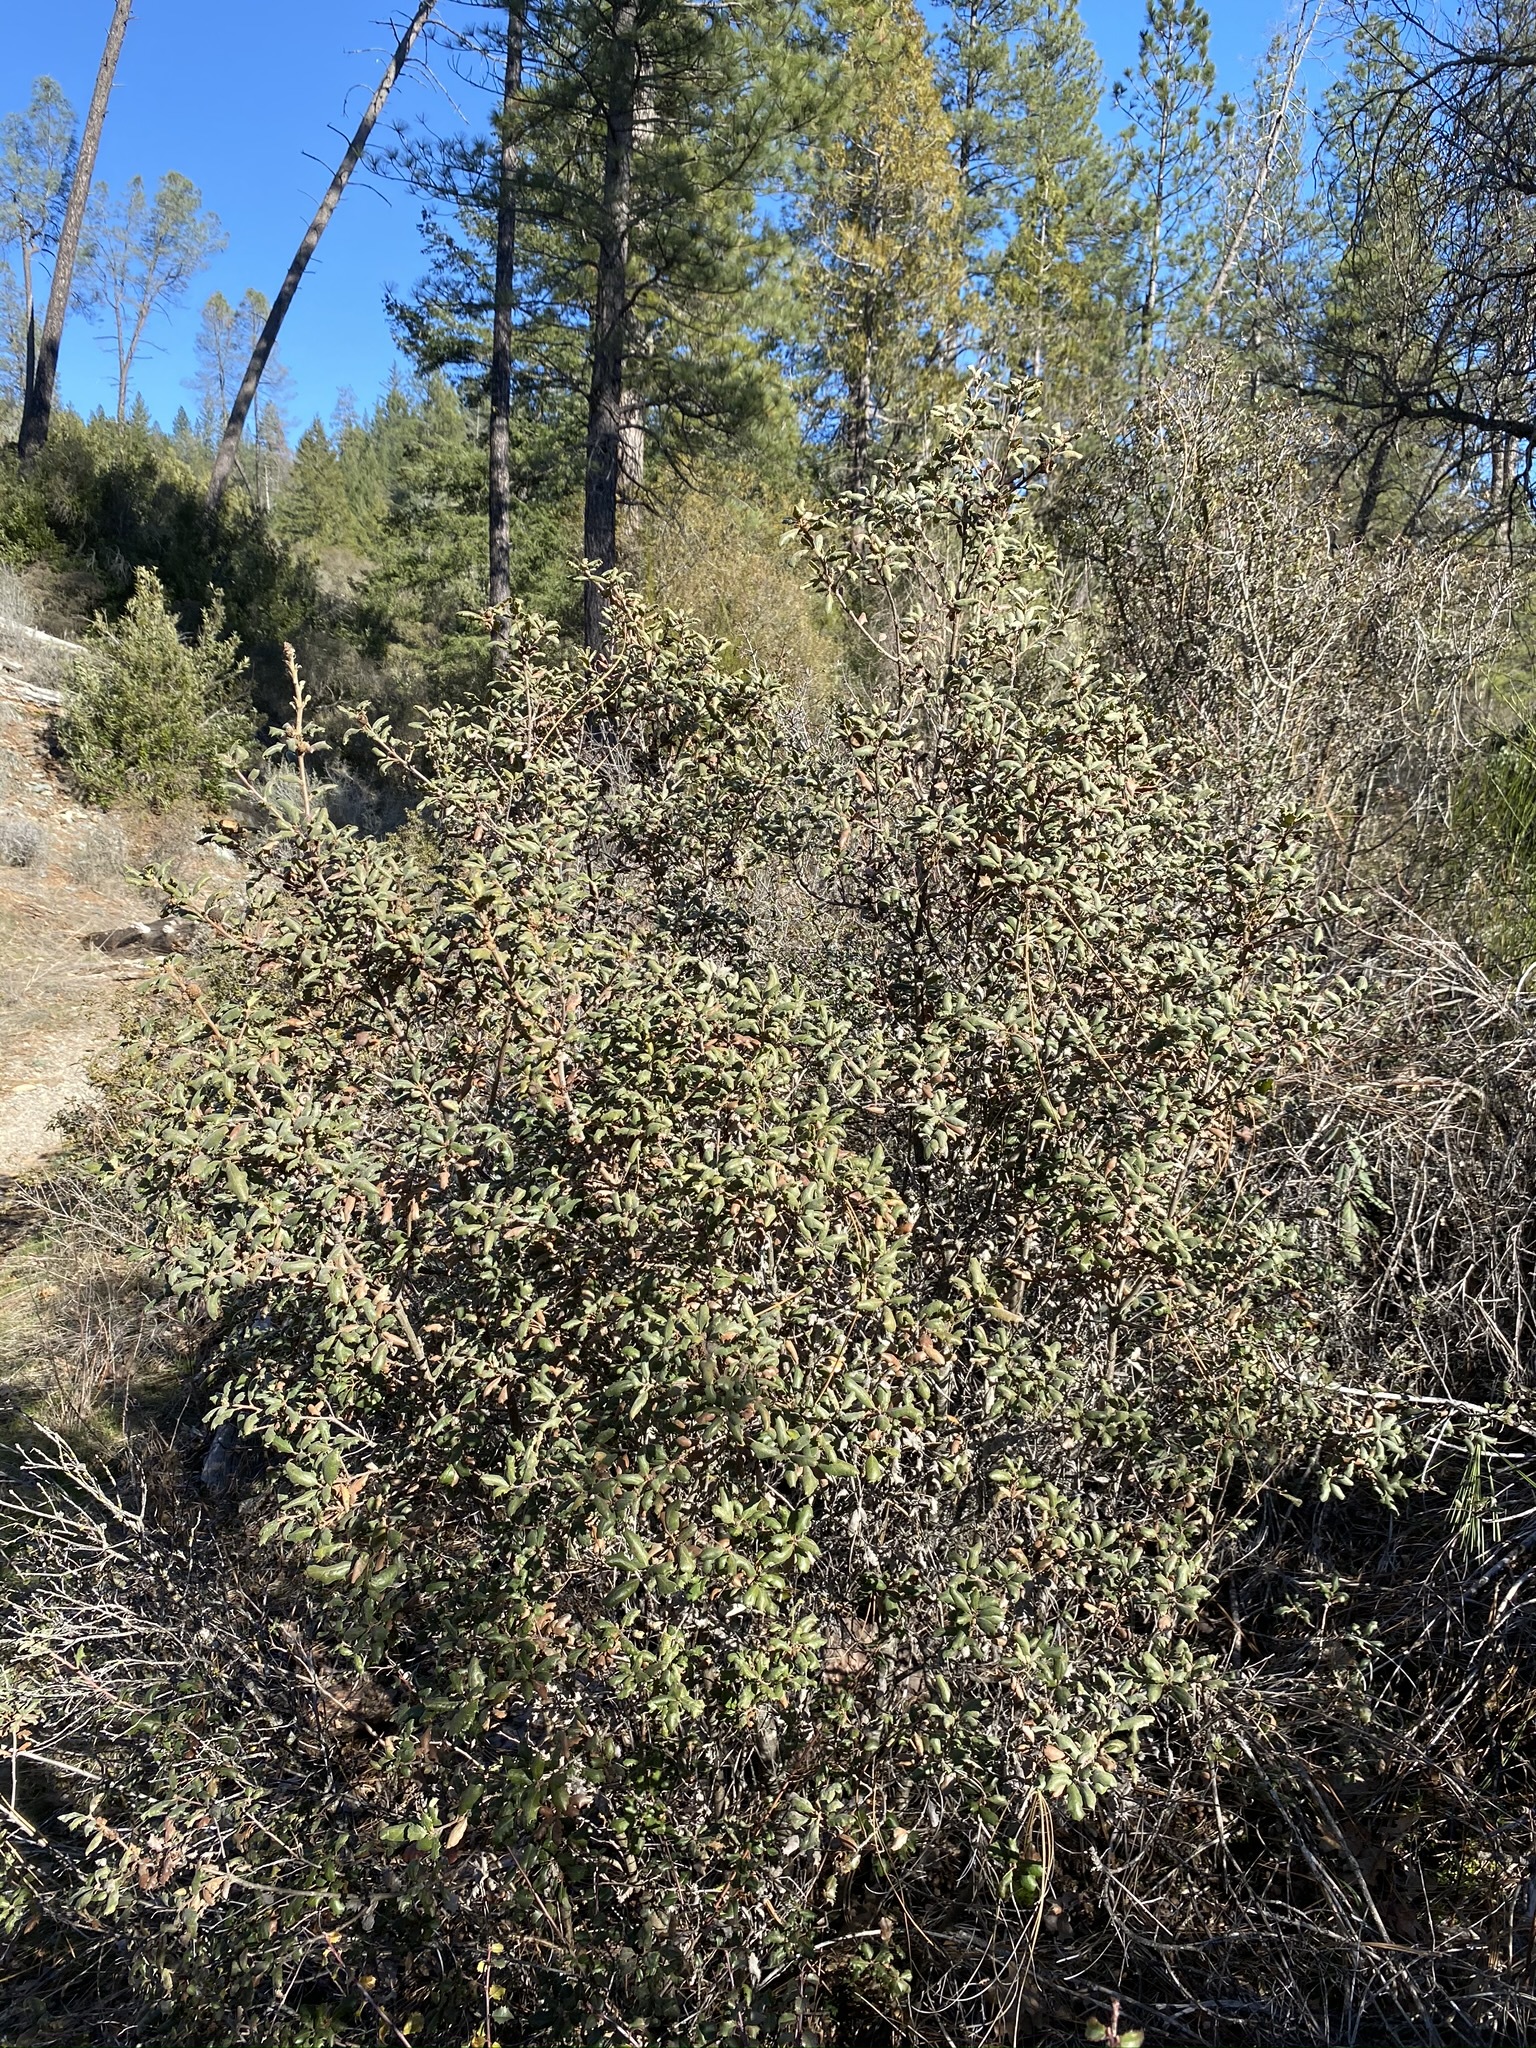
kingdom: Plantae
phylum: Tracheophyta
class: Magnoliopsida
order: Fagales
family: Fagaceae
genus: Quercus
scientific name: Quercus durata
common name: Leather oak
